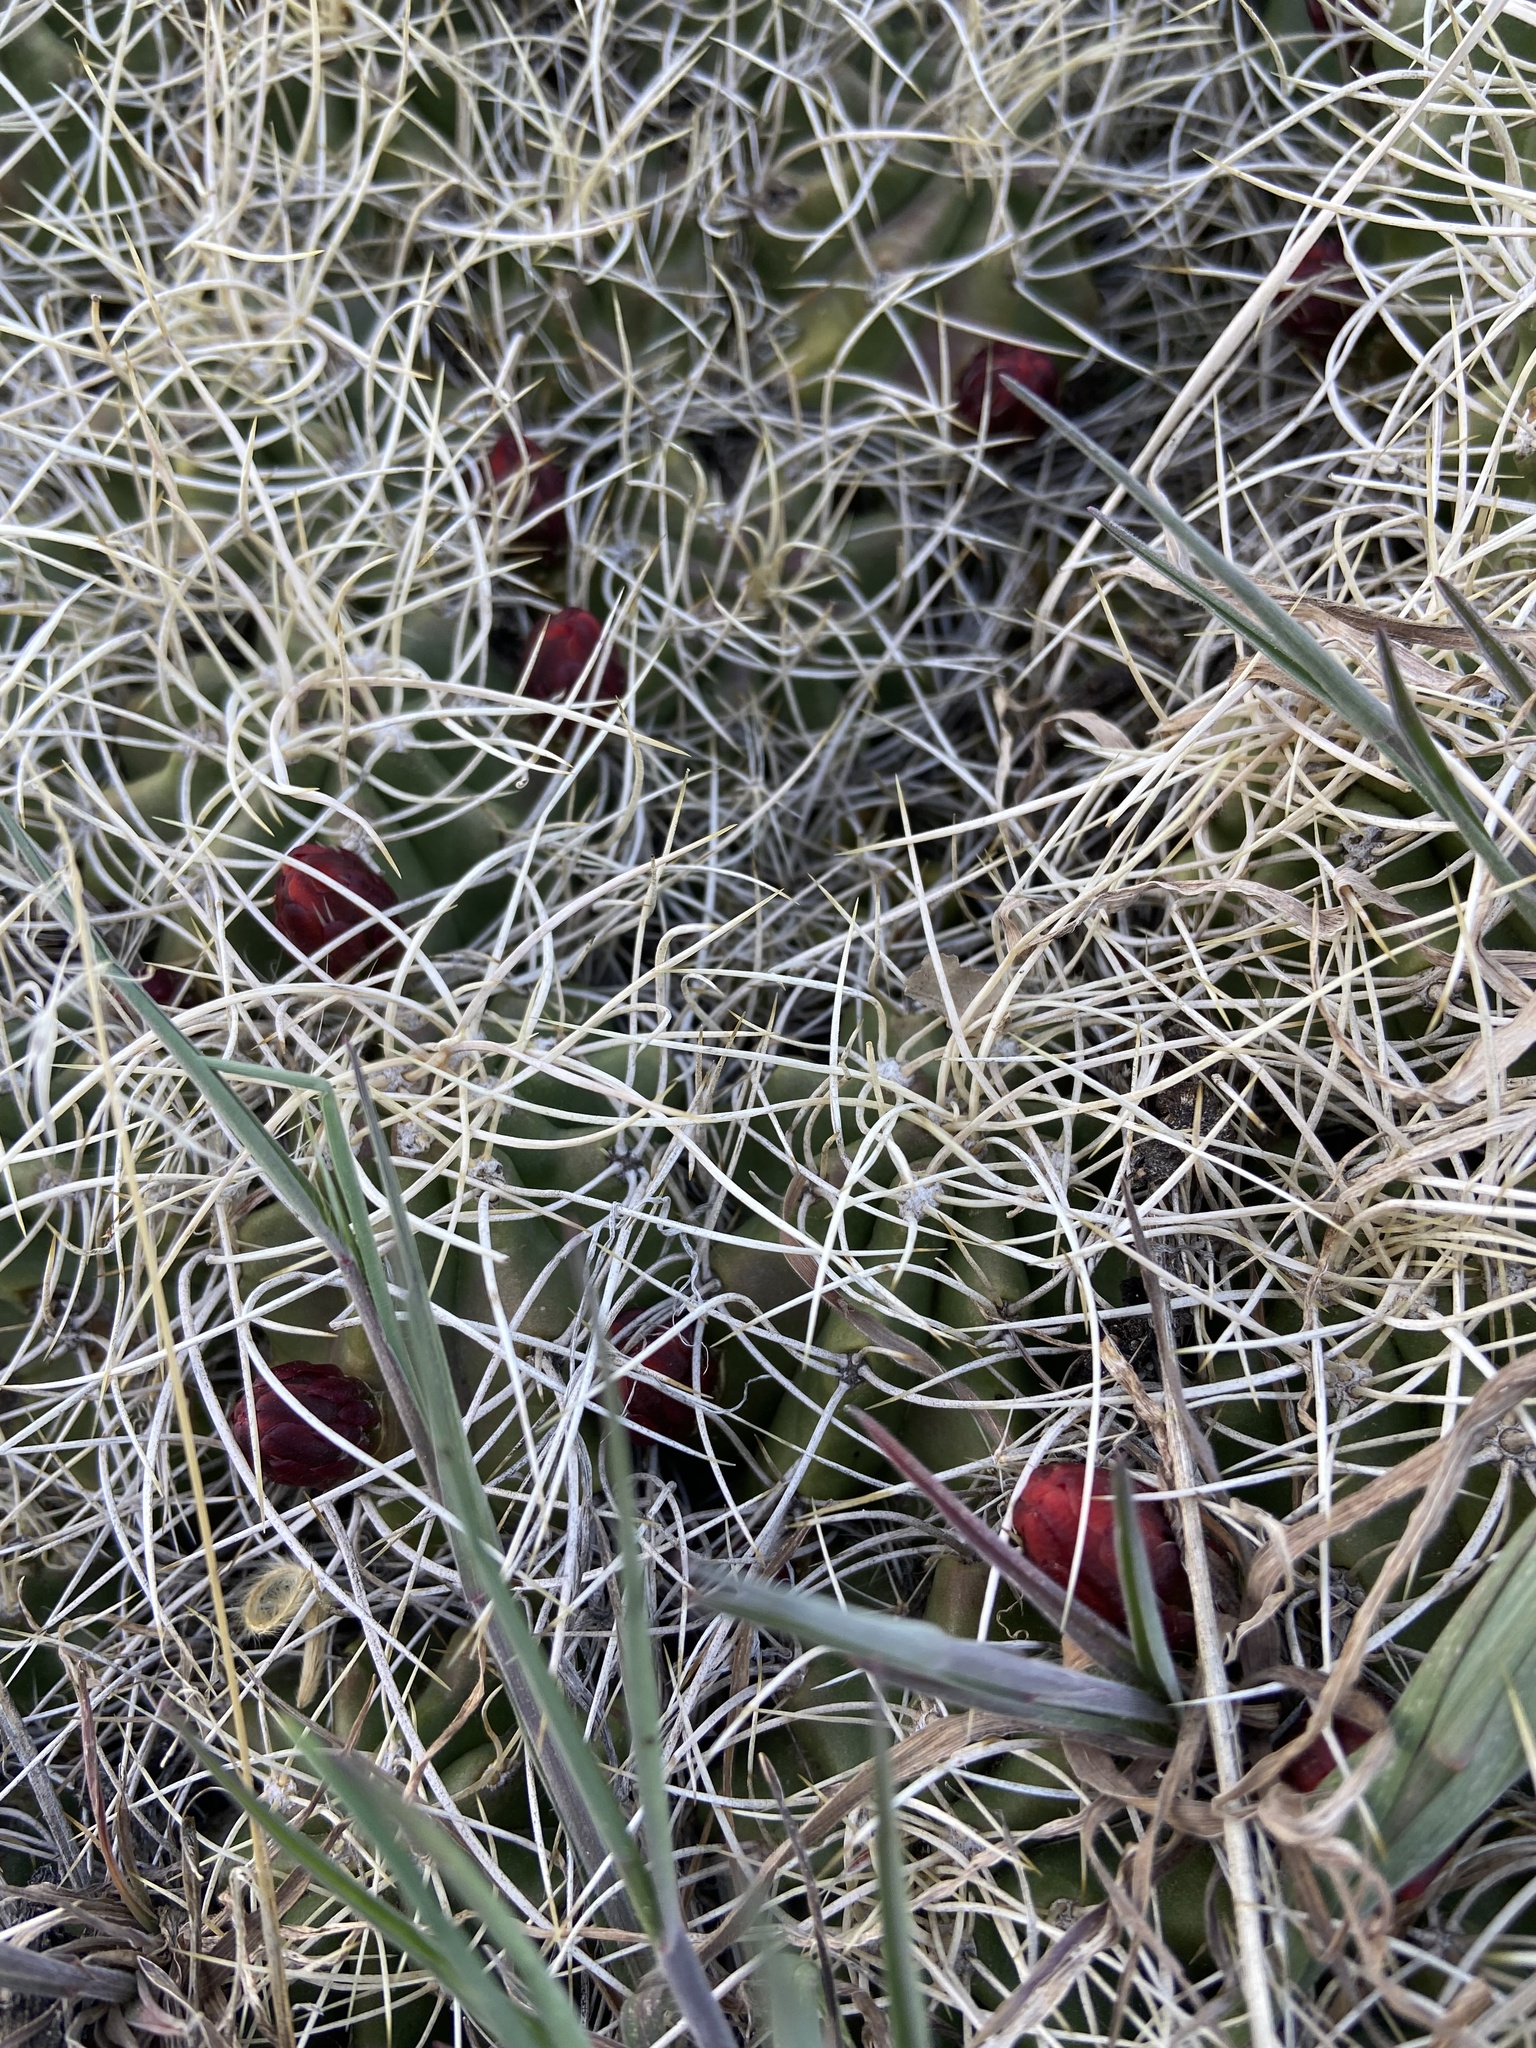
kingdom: Plantae
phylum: Tracheophyta
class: Magnoliopsida
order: Caryophyllales
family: Cactaceae
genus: Echinocereus
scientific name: Echinocereus triglochidiatus
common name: Claretcup hedgehog
